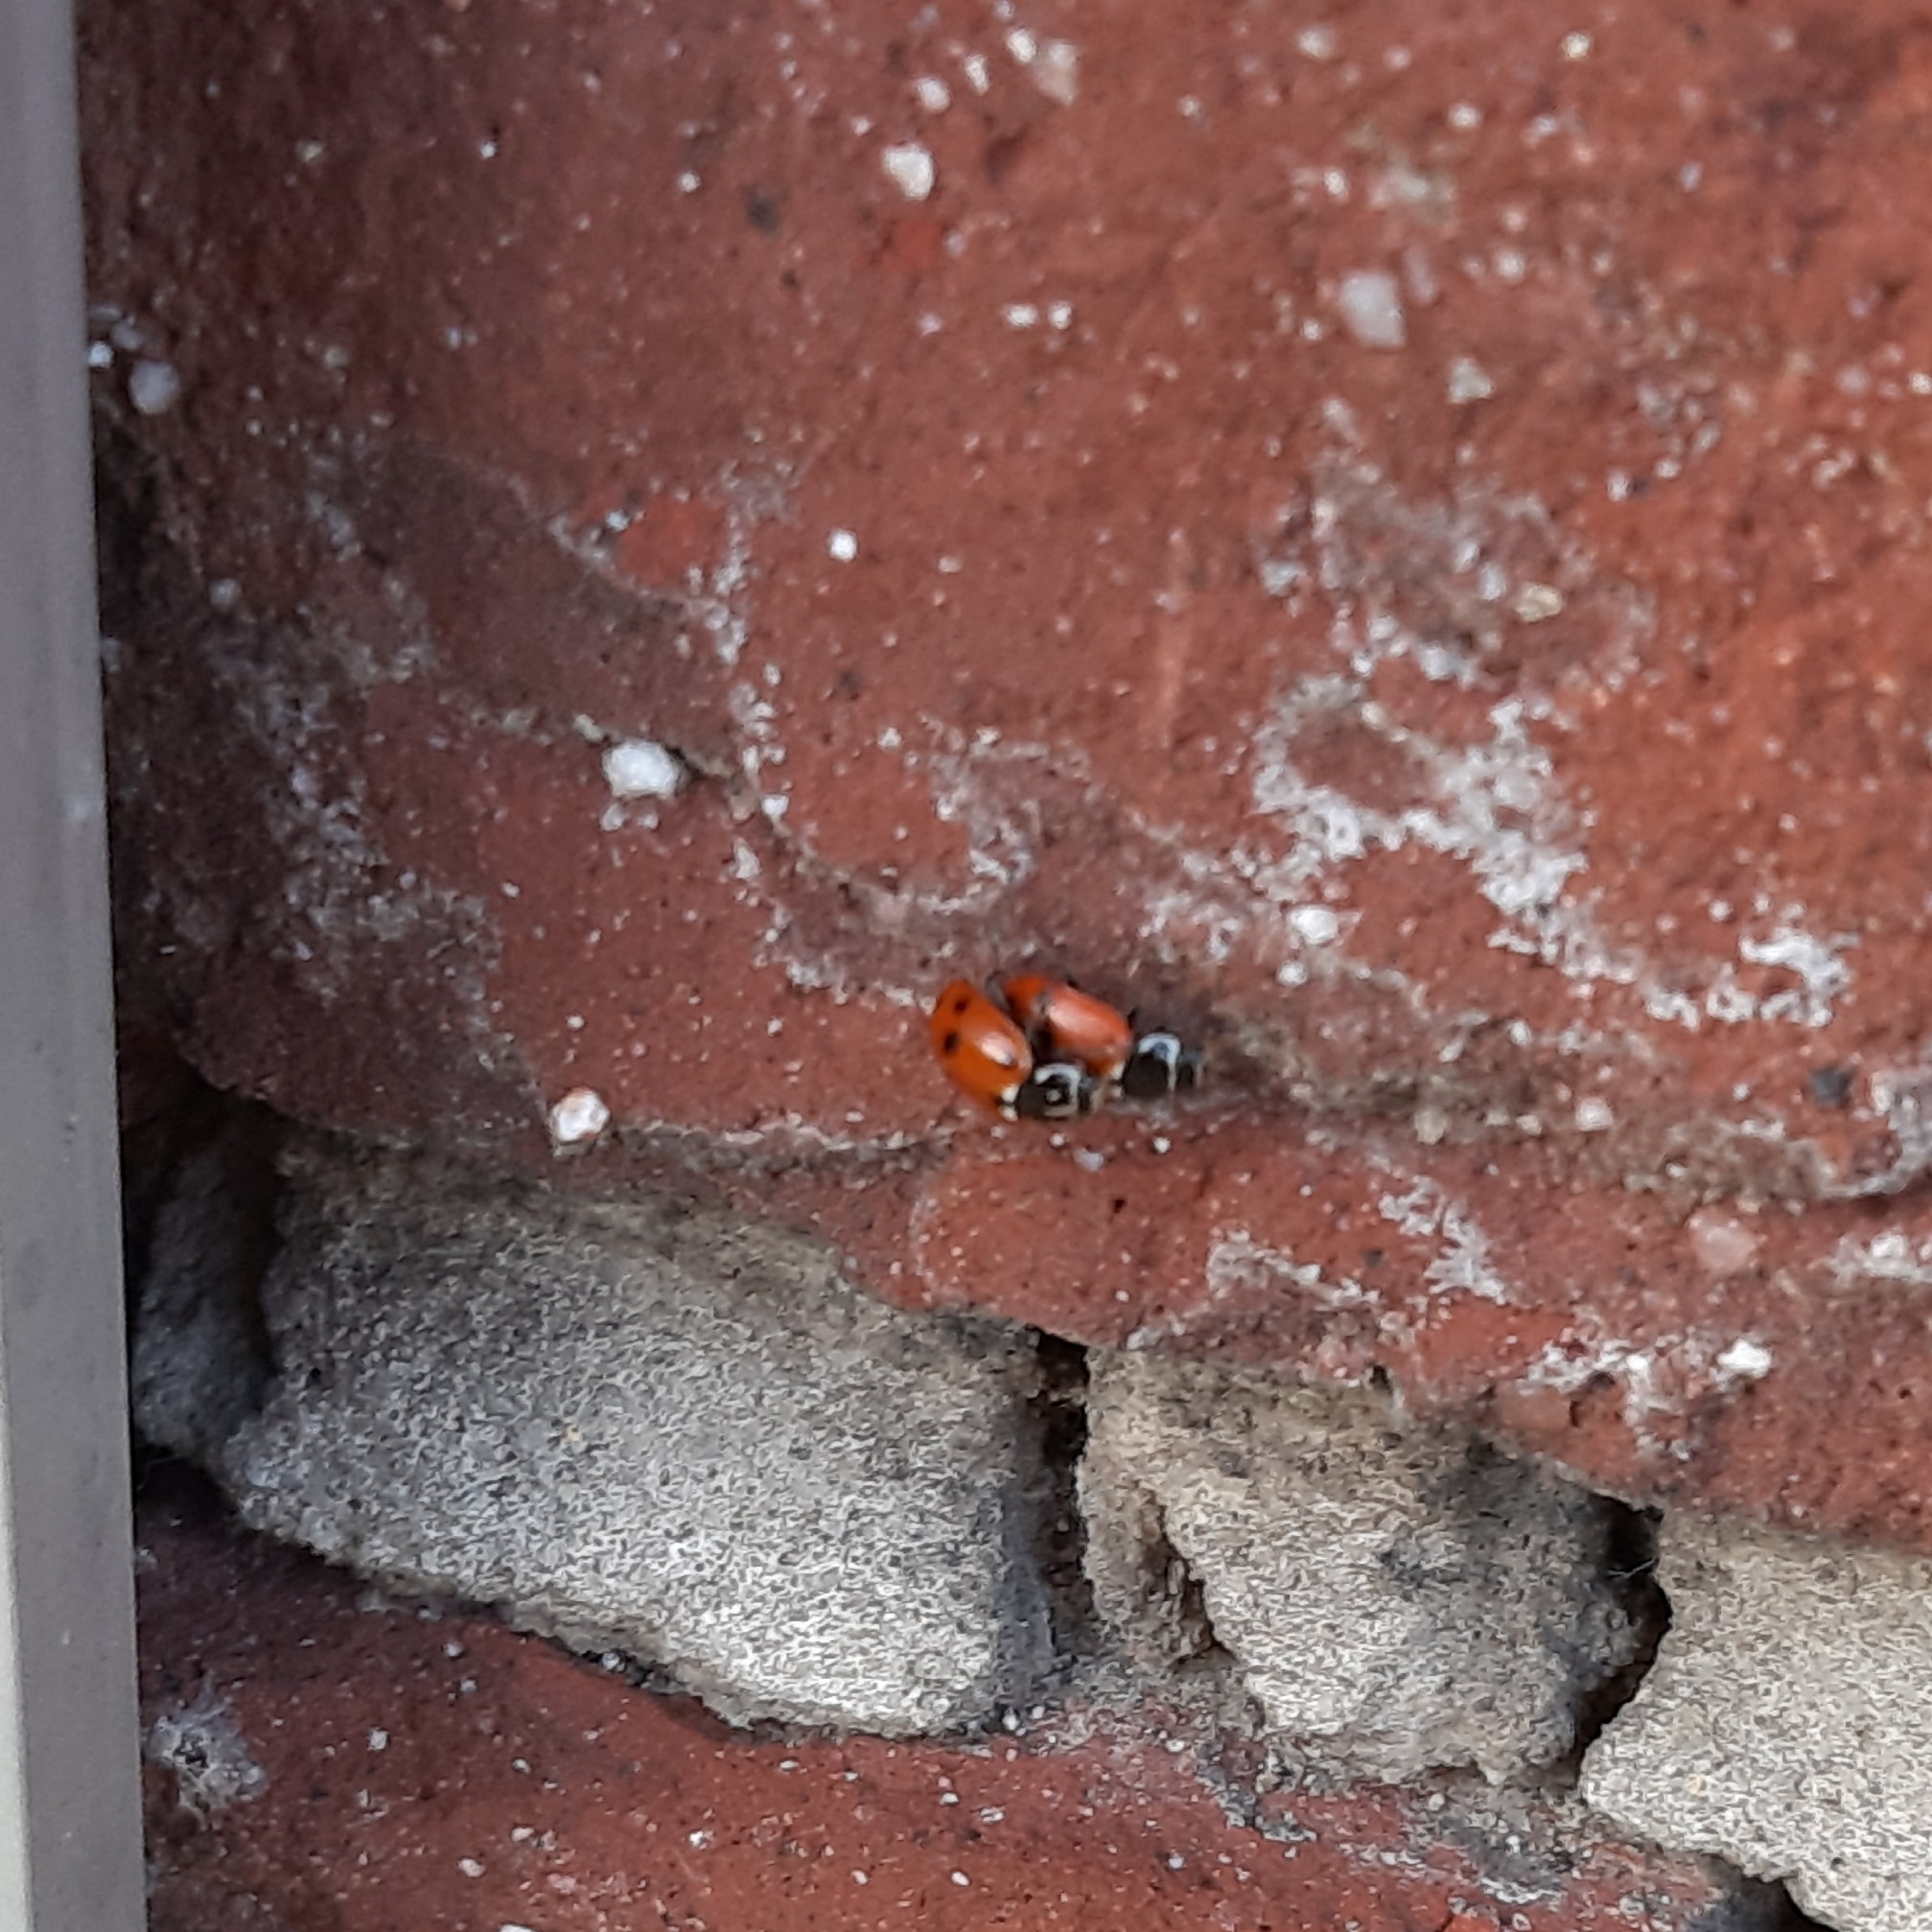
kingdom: Animalia
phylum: Arthropoda
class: Insecta
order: Coleoptera
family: Coccinellidae
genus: Hippodamia
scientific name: Hippodamia variegata
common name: Ladybird beetle
